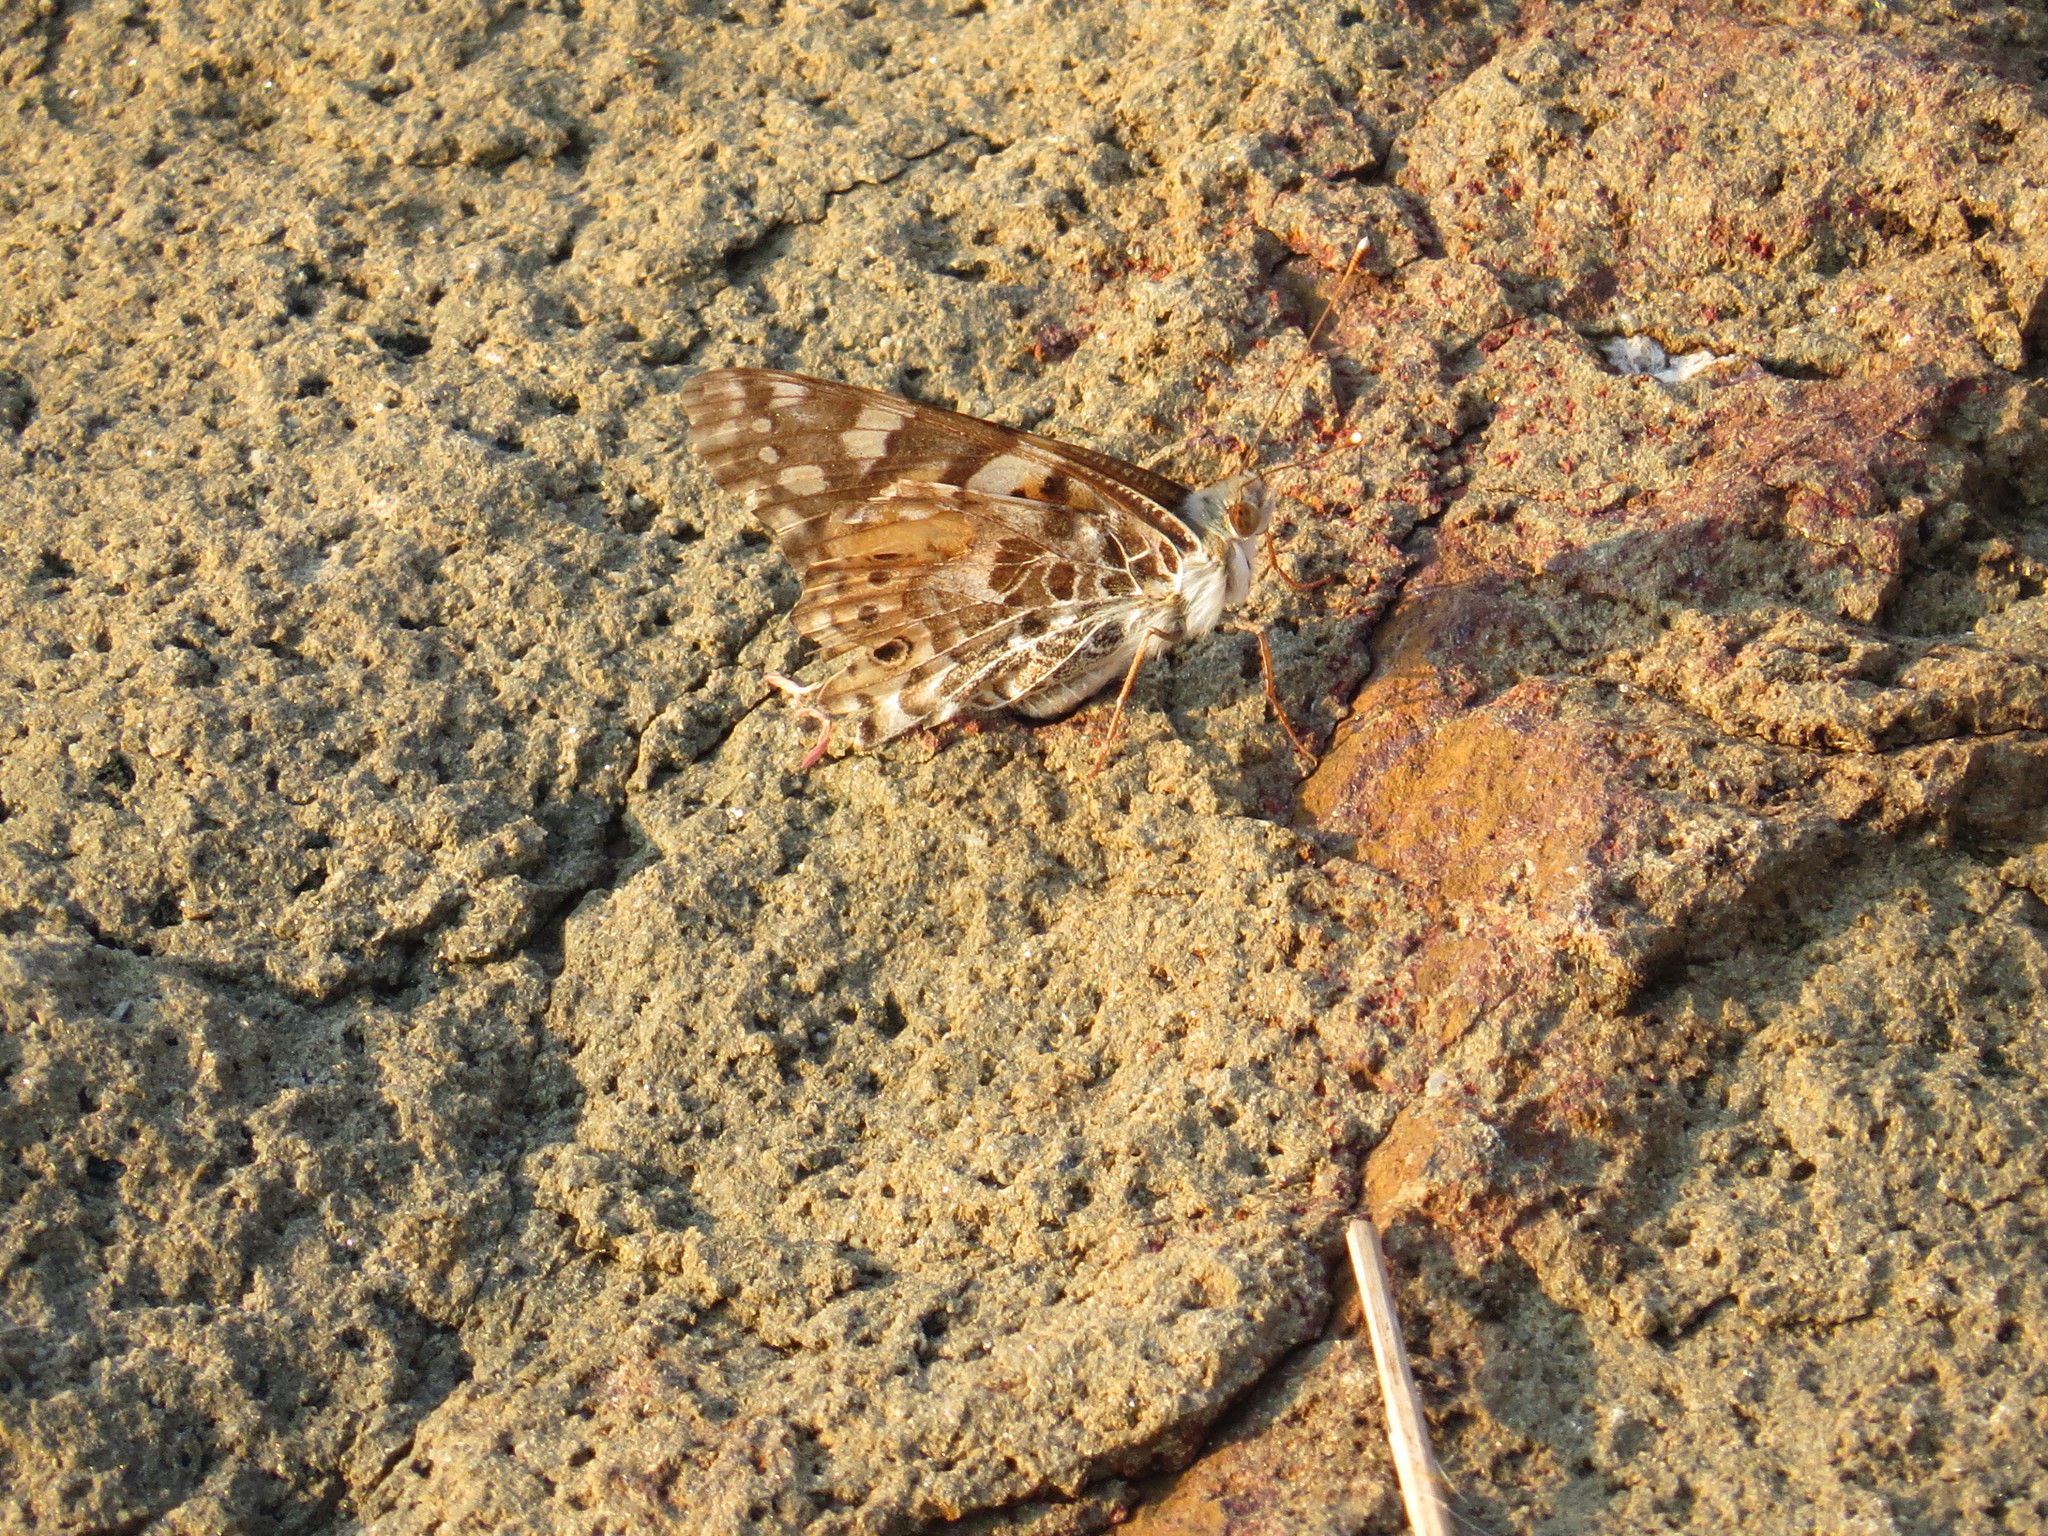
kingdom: Animalia
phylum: Arthropoda
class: Insecta
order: Lepidoptera
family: Nymphalidae
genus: Vanessa
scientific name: Vanessa cardui
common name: Painted lady
